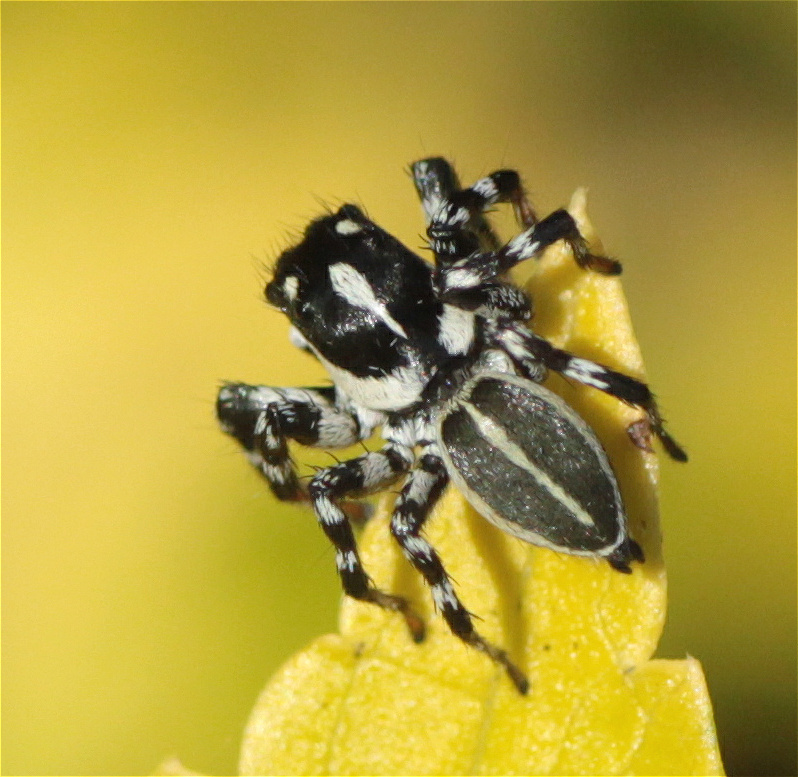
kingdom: Animalia
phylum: Arthropoda
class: Arachnida
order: Araneae
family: Salticidae
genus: Phiale
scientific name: Phiale tristis
